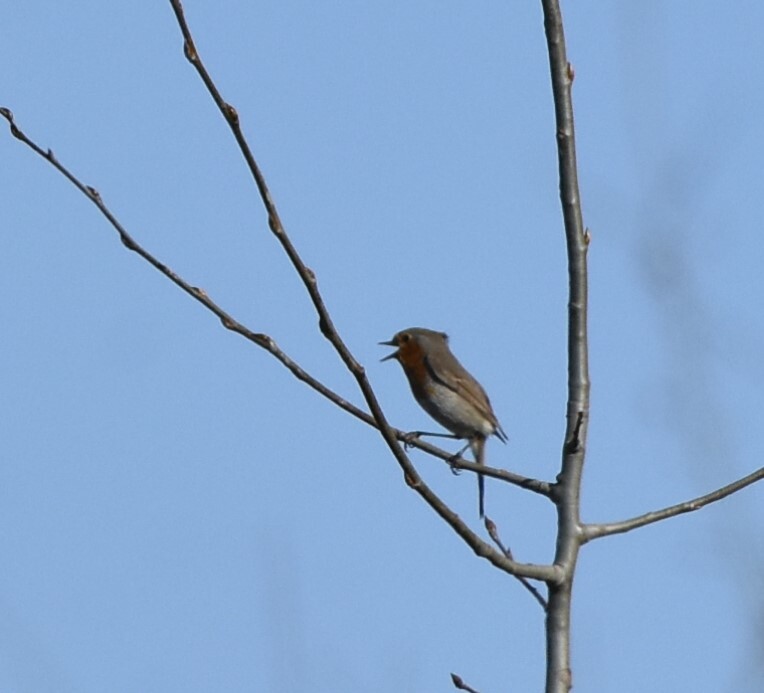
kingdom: Animalia
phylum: Chordata
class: Aves
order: Passeriformes
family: Muscicapidae
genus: Erithacus
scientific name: Erithacus rubecula
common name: European robin
